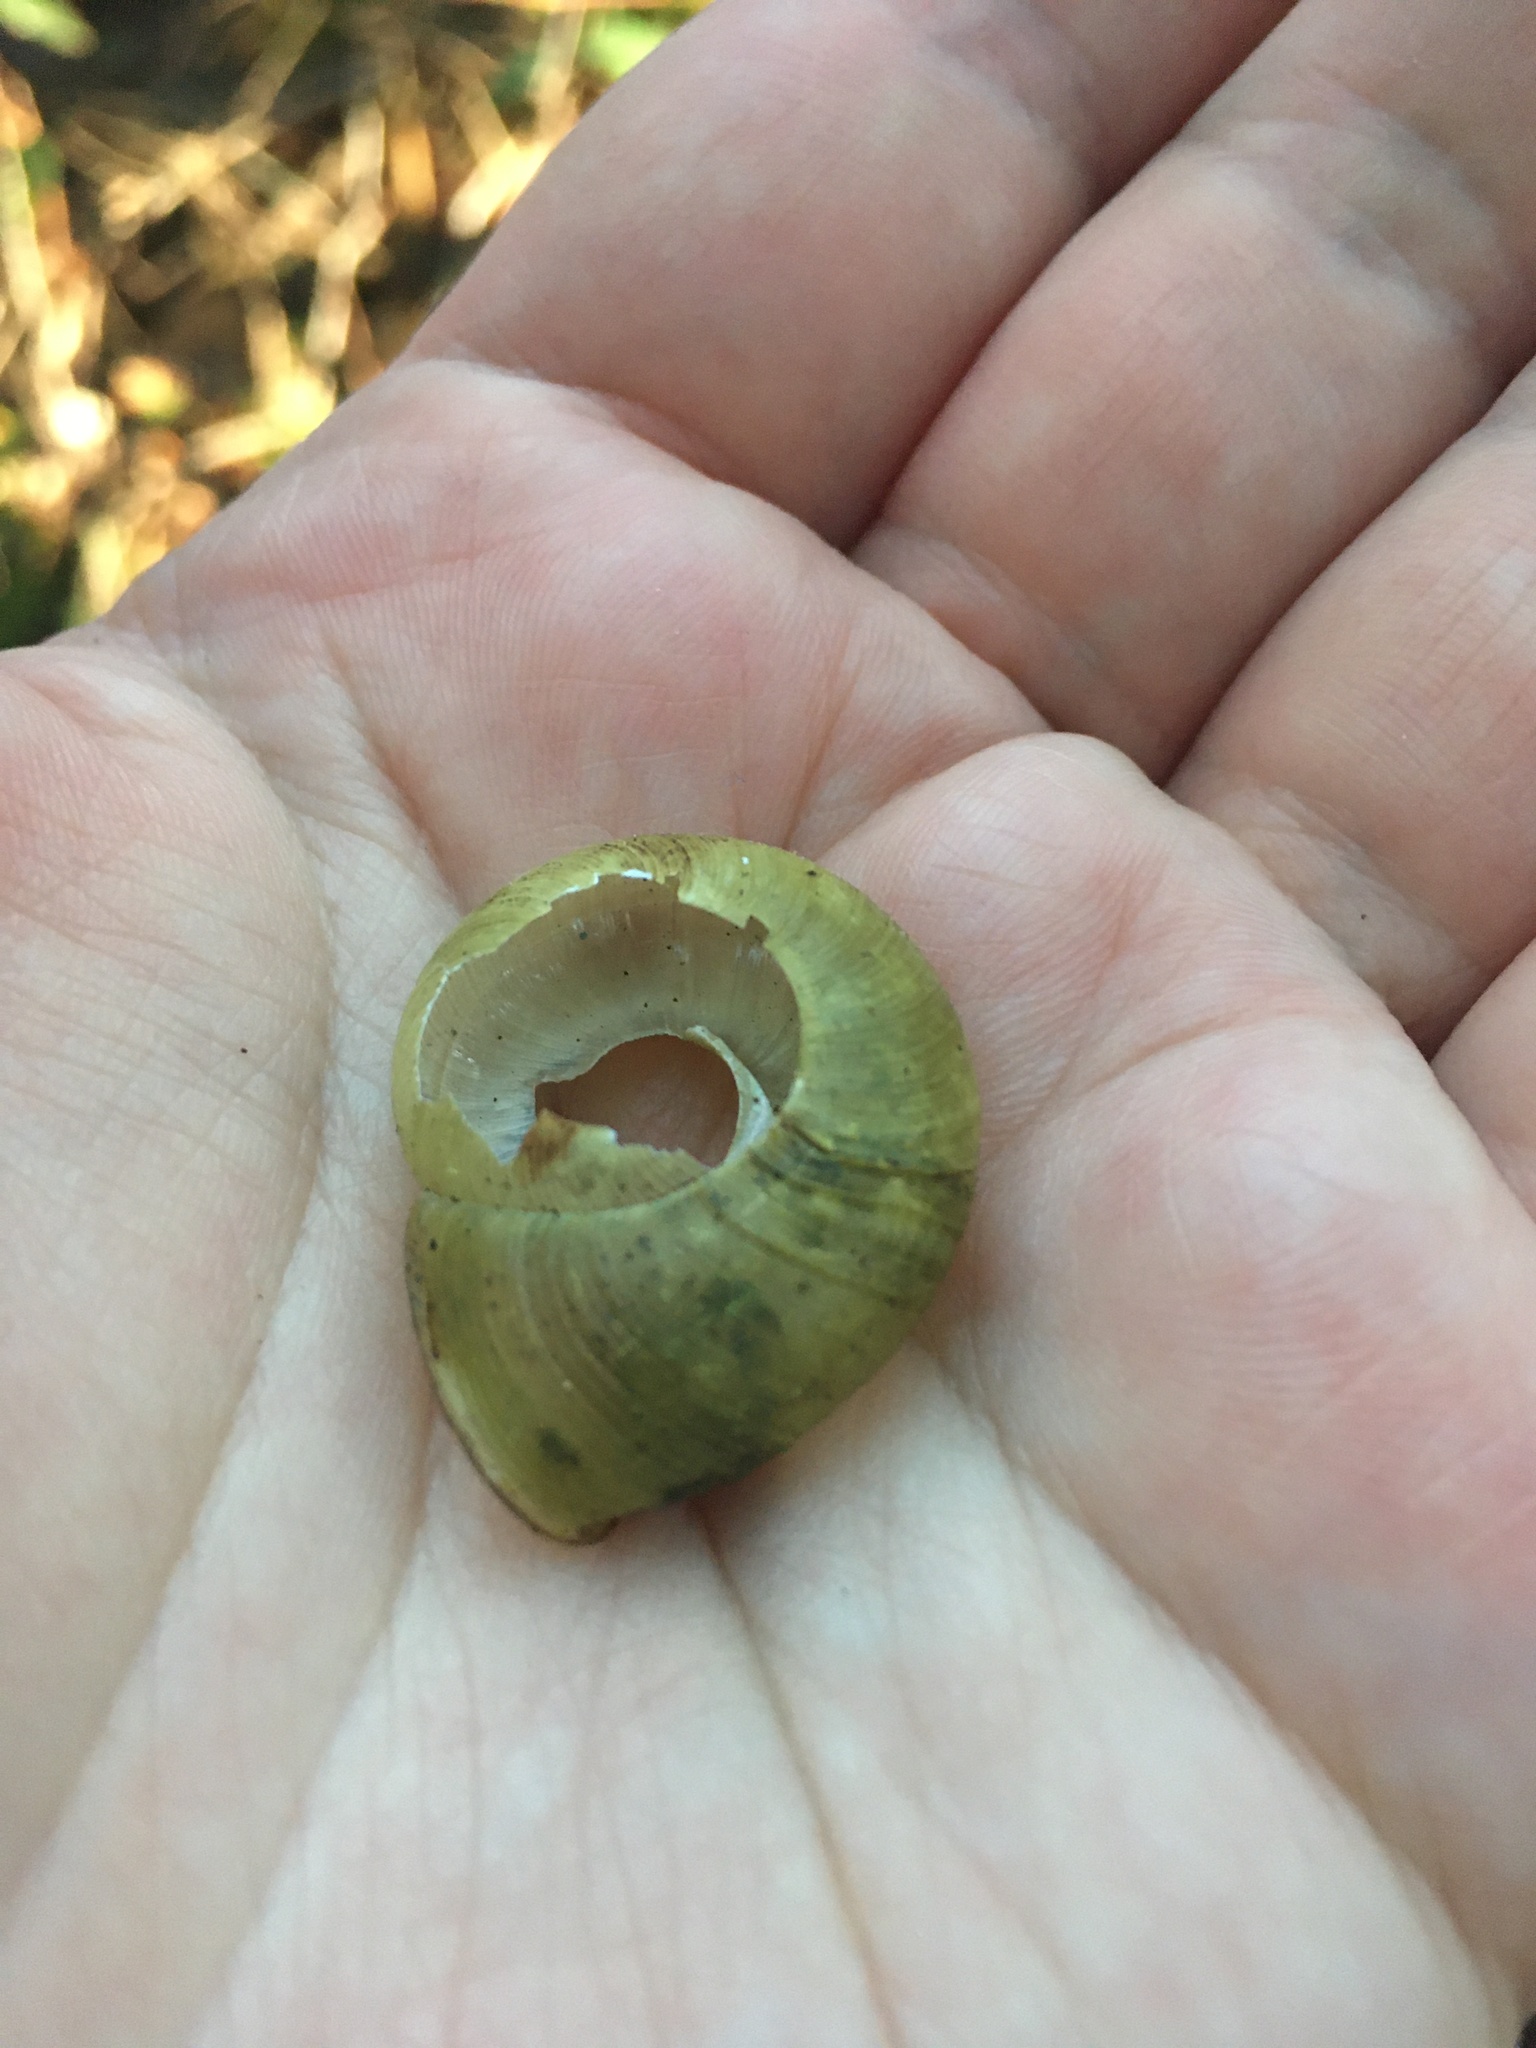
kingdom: Animalia
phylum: Mollusca
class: Gastropoda
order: Stylommatophora
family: Haplotrematidae
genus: Haplotrema
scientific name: Haplotrema vancouverense
